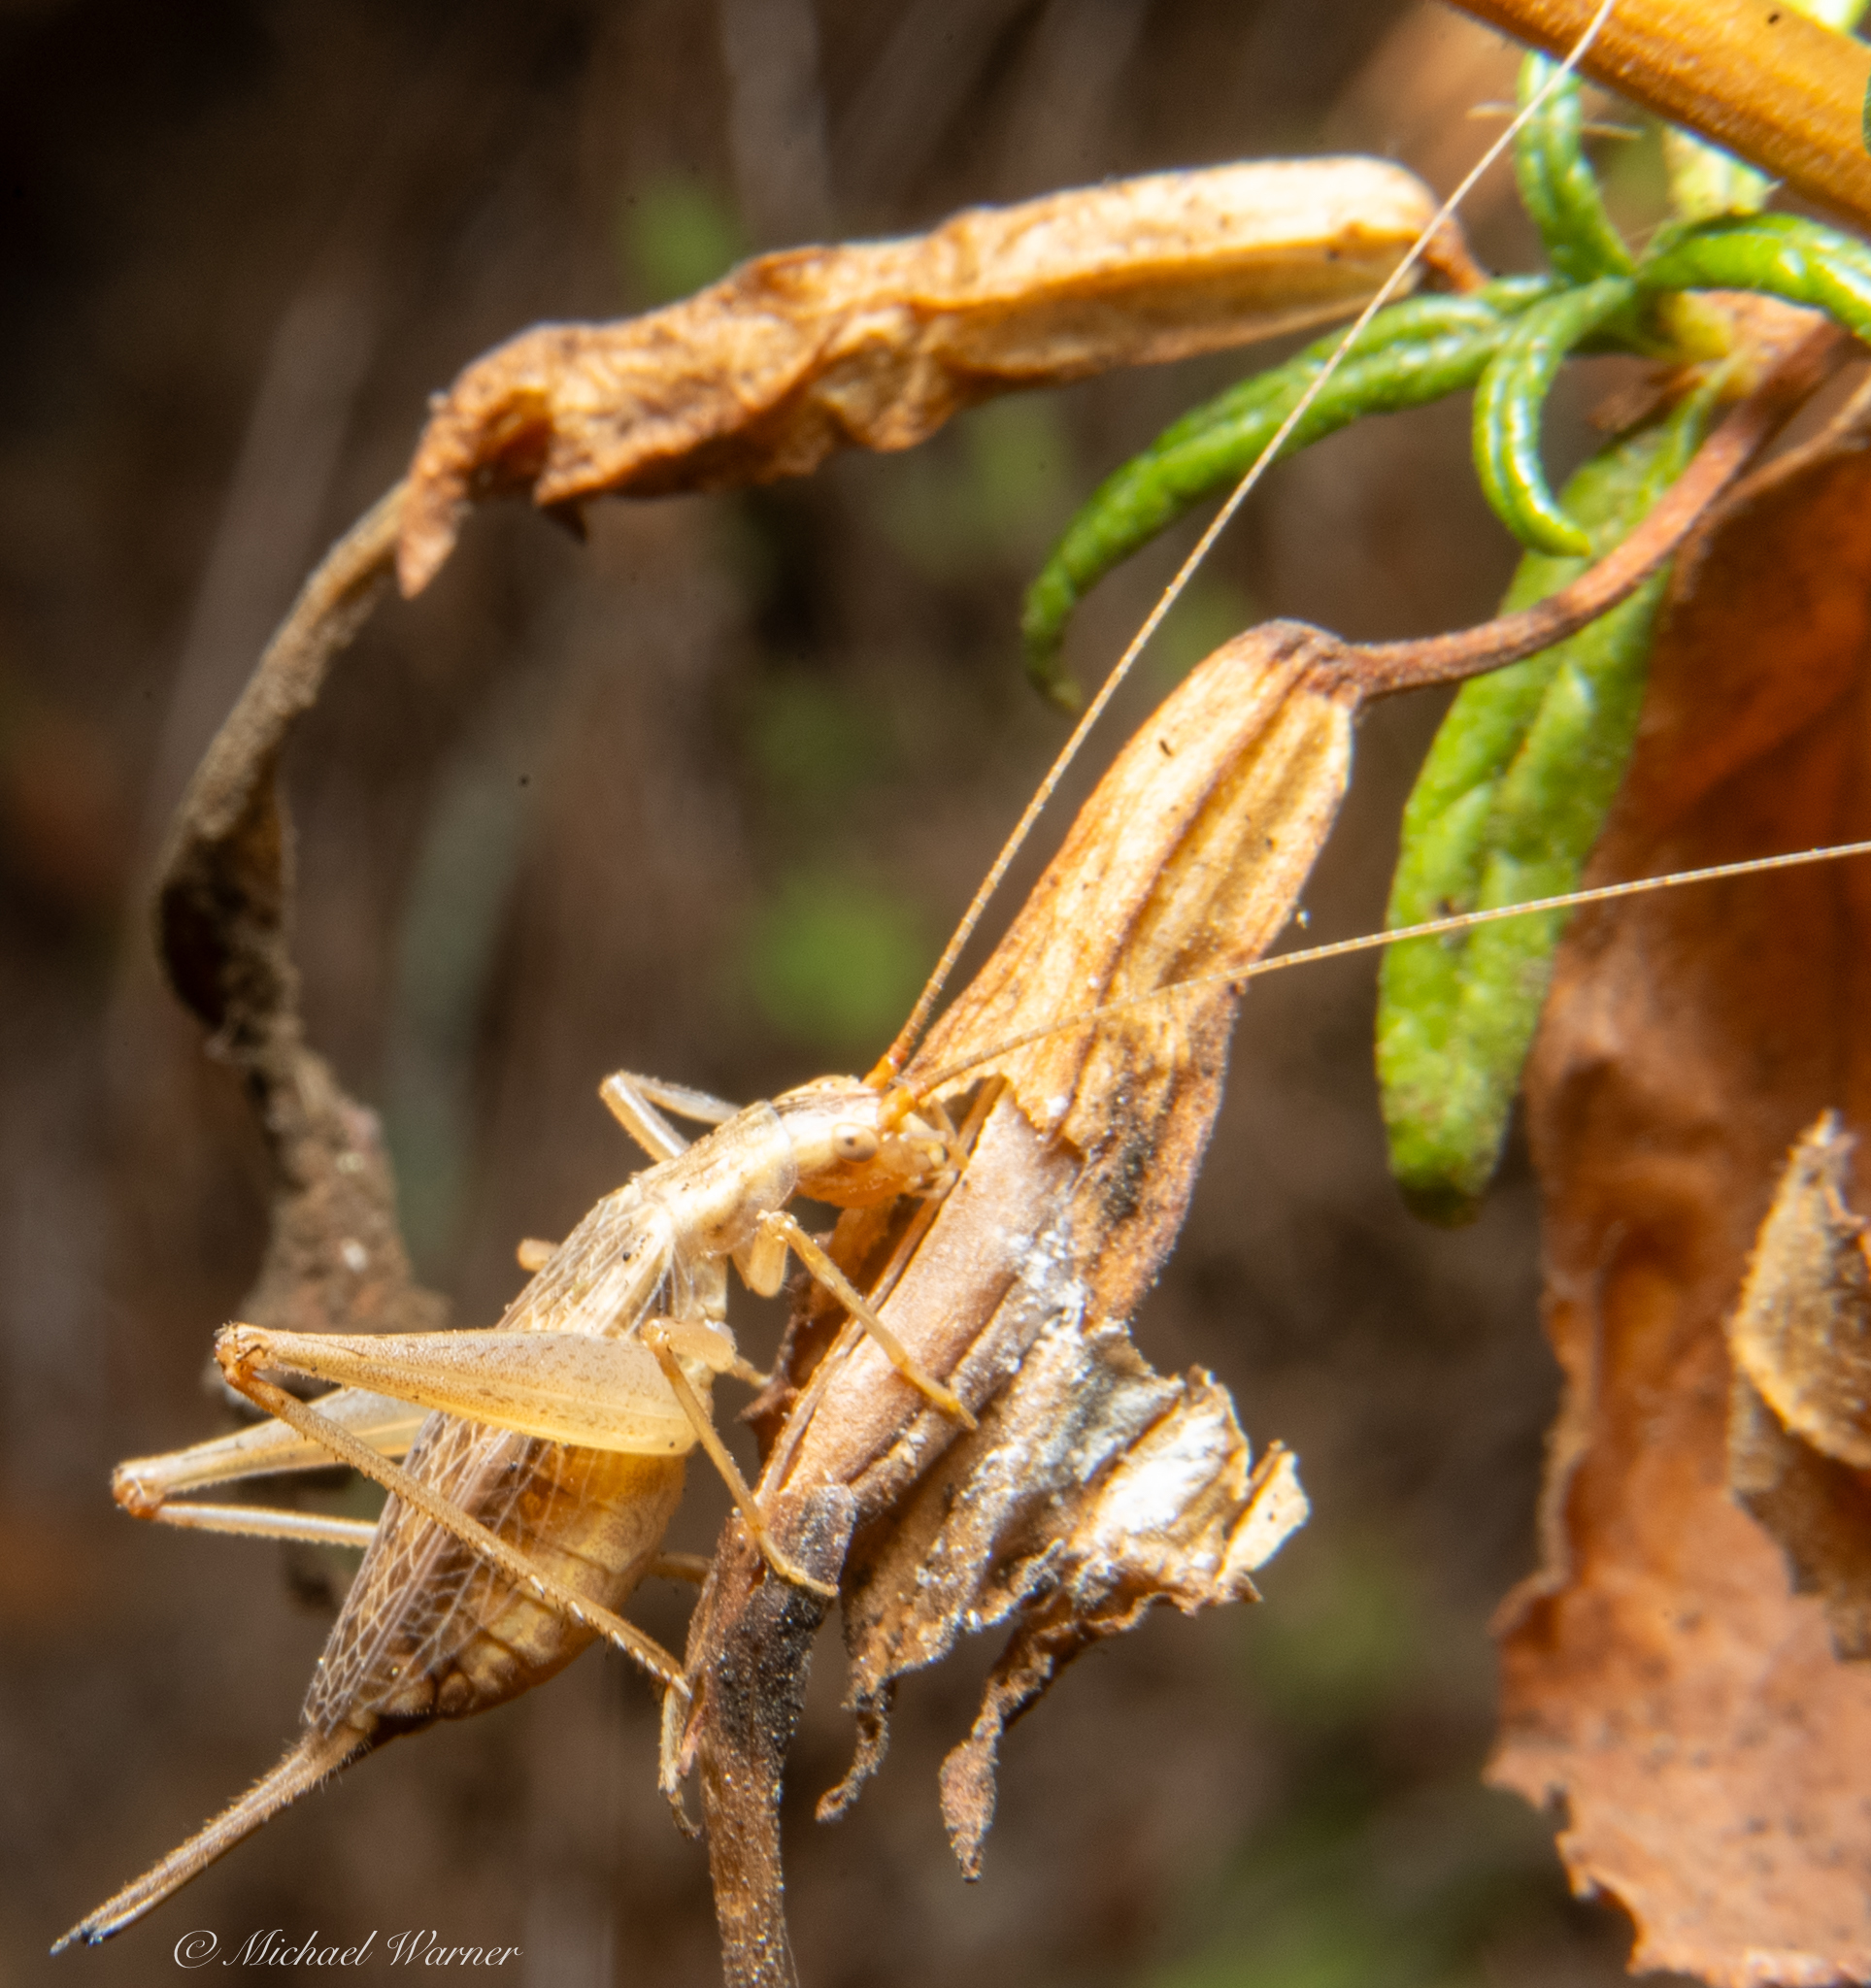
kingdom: Animalia
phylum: Arthropoda
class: Insecta
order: Orthoptera
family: Gryllidae
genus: Oecanthus
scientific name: Oecanthus californicus
